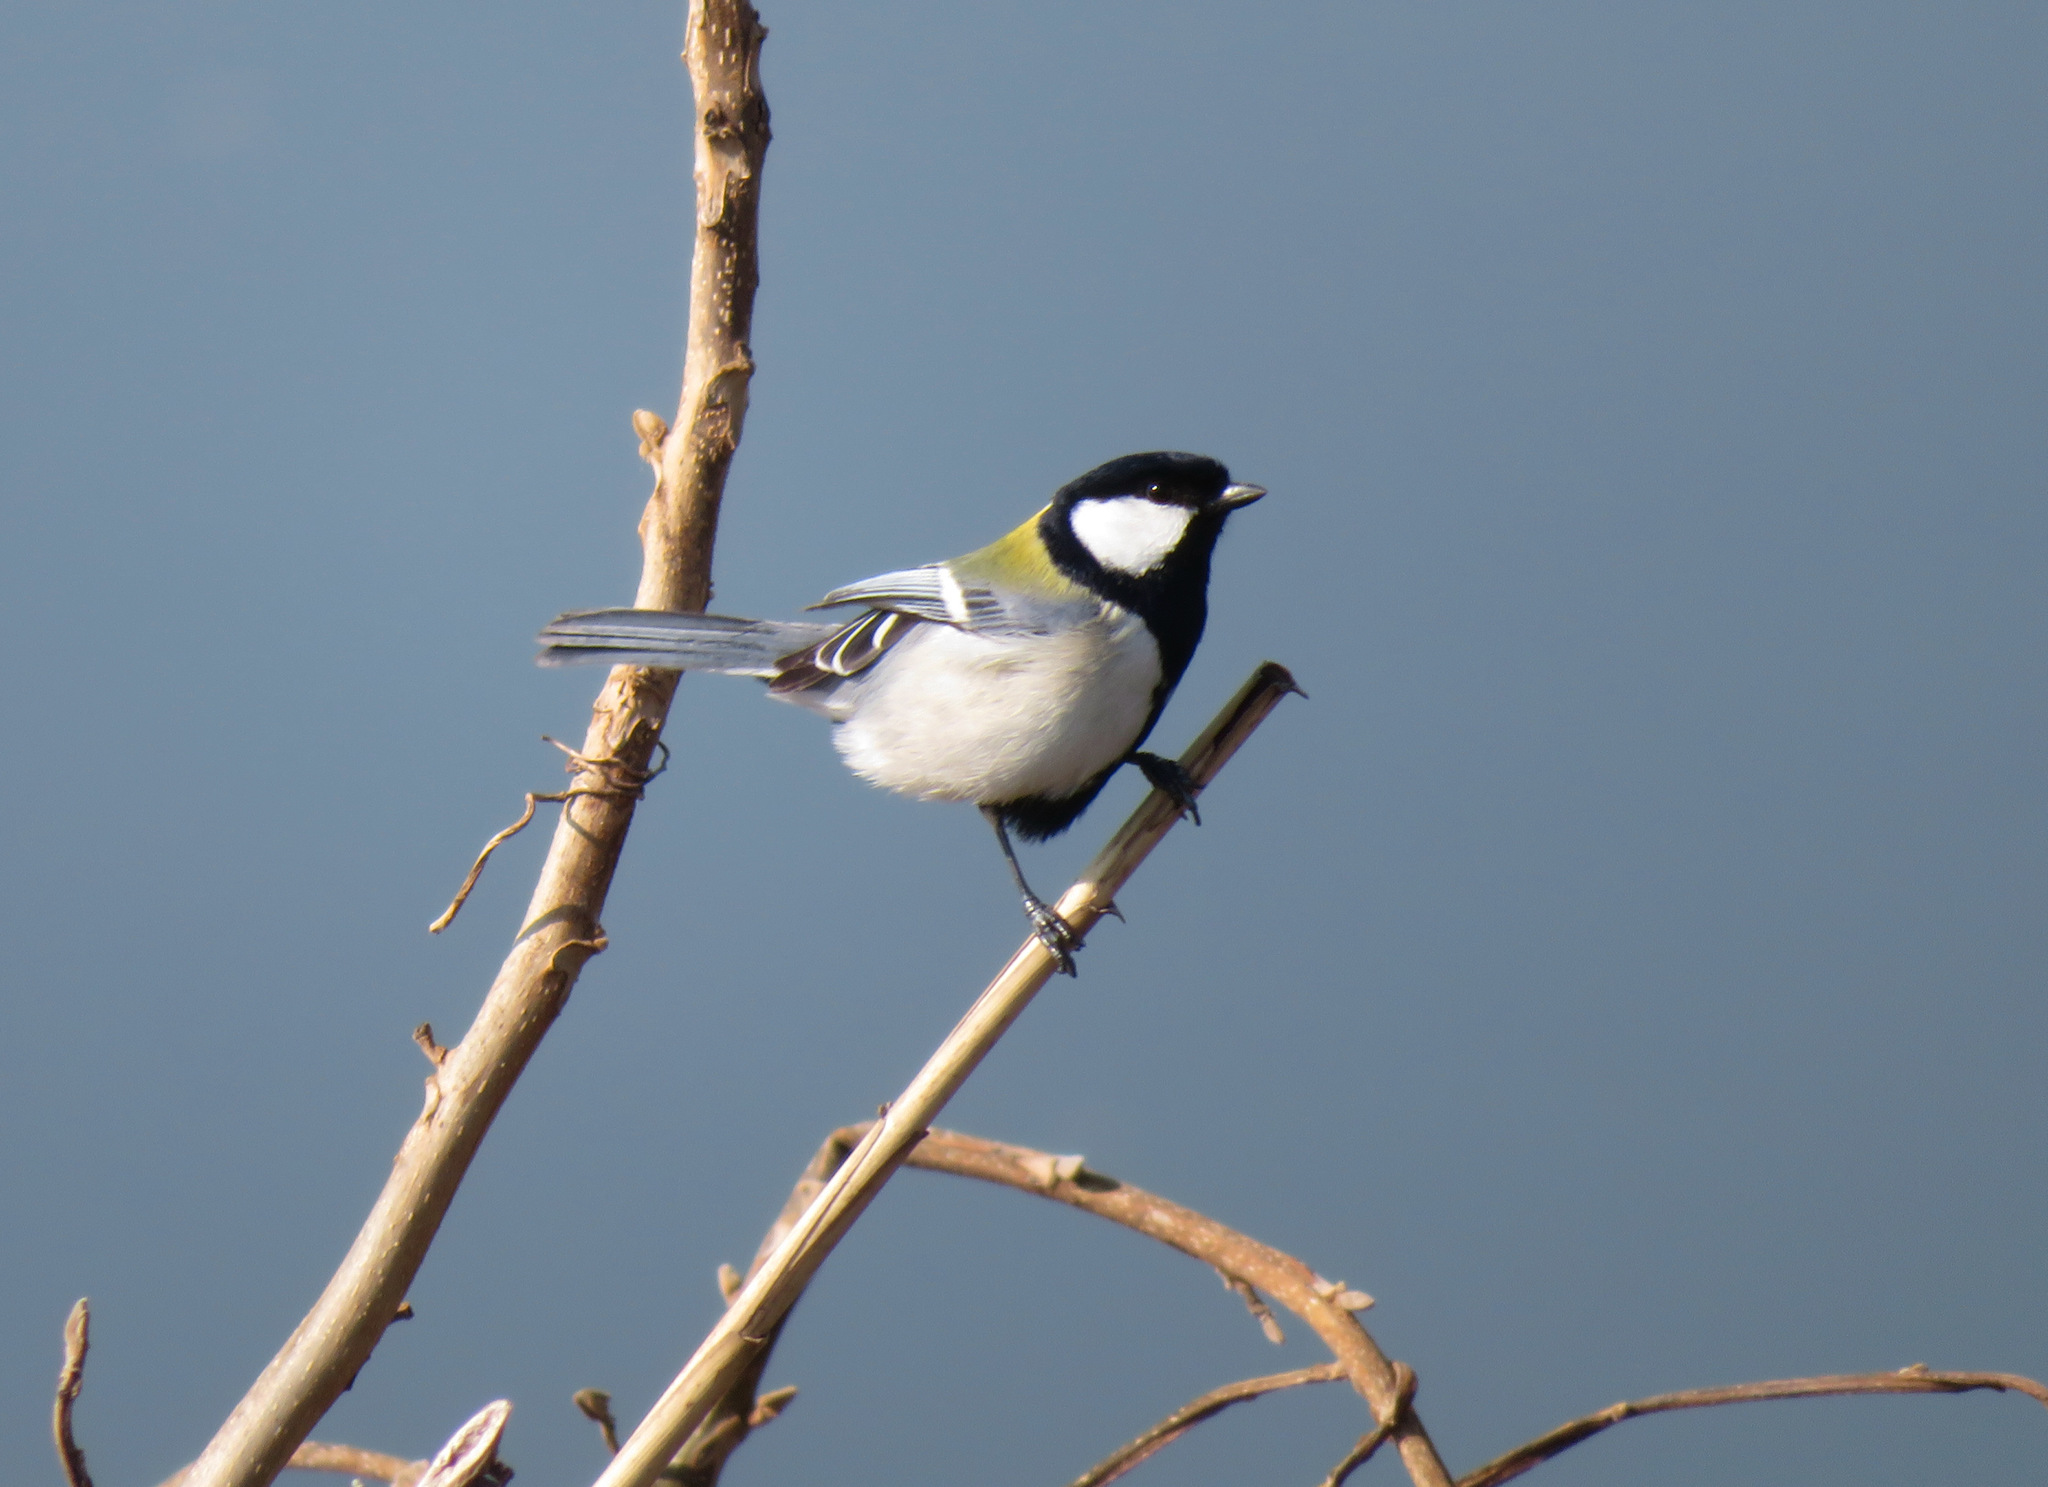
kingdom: Animalia
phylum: Chordata
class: Aves
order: Passeriformes
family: Paridae
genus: Parus
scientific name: Parus minor
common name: Japanese tit
